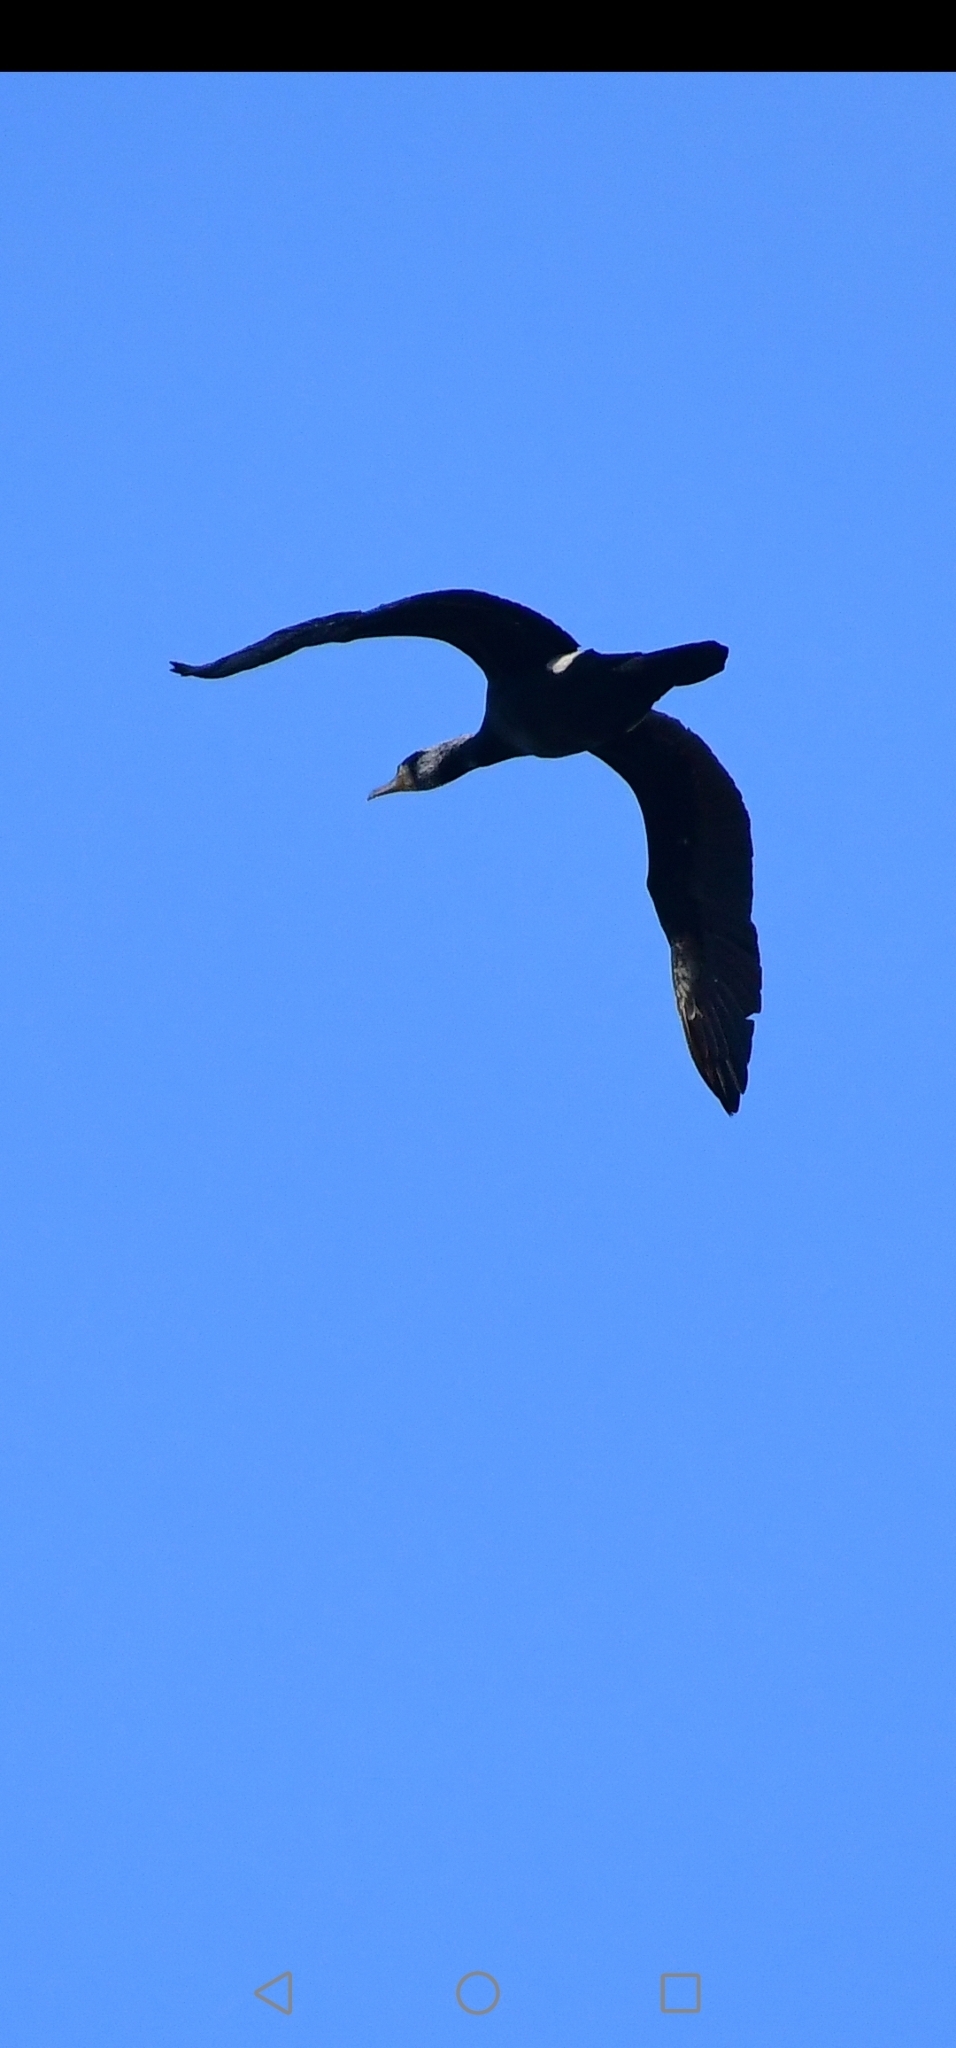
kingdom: Animalia
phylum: Chordata
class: Aves
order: Suliformes
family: Phalacrocoracidae
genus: Phalacrocorax
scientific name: Phalacrocorax carbo
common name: Great cormorant
